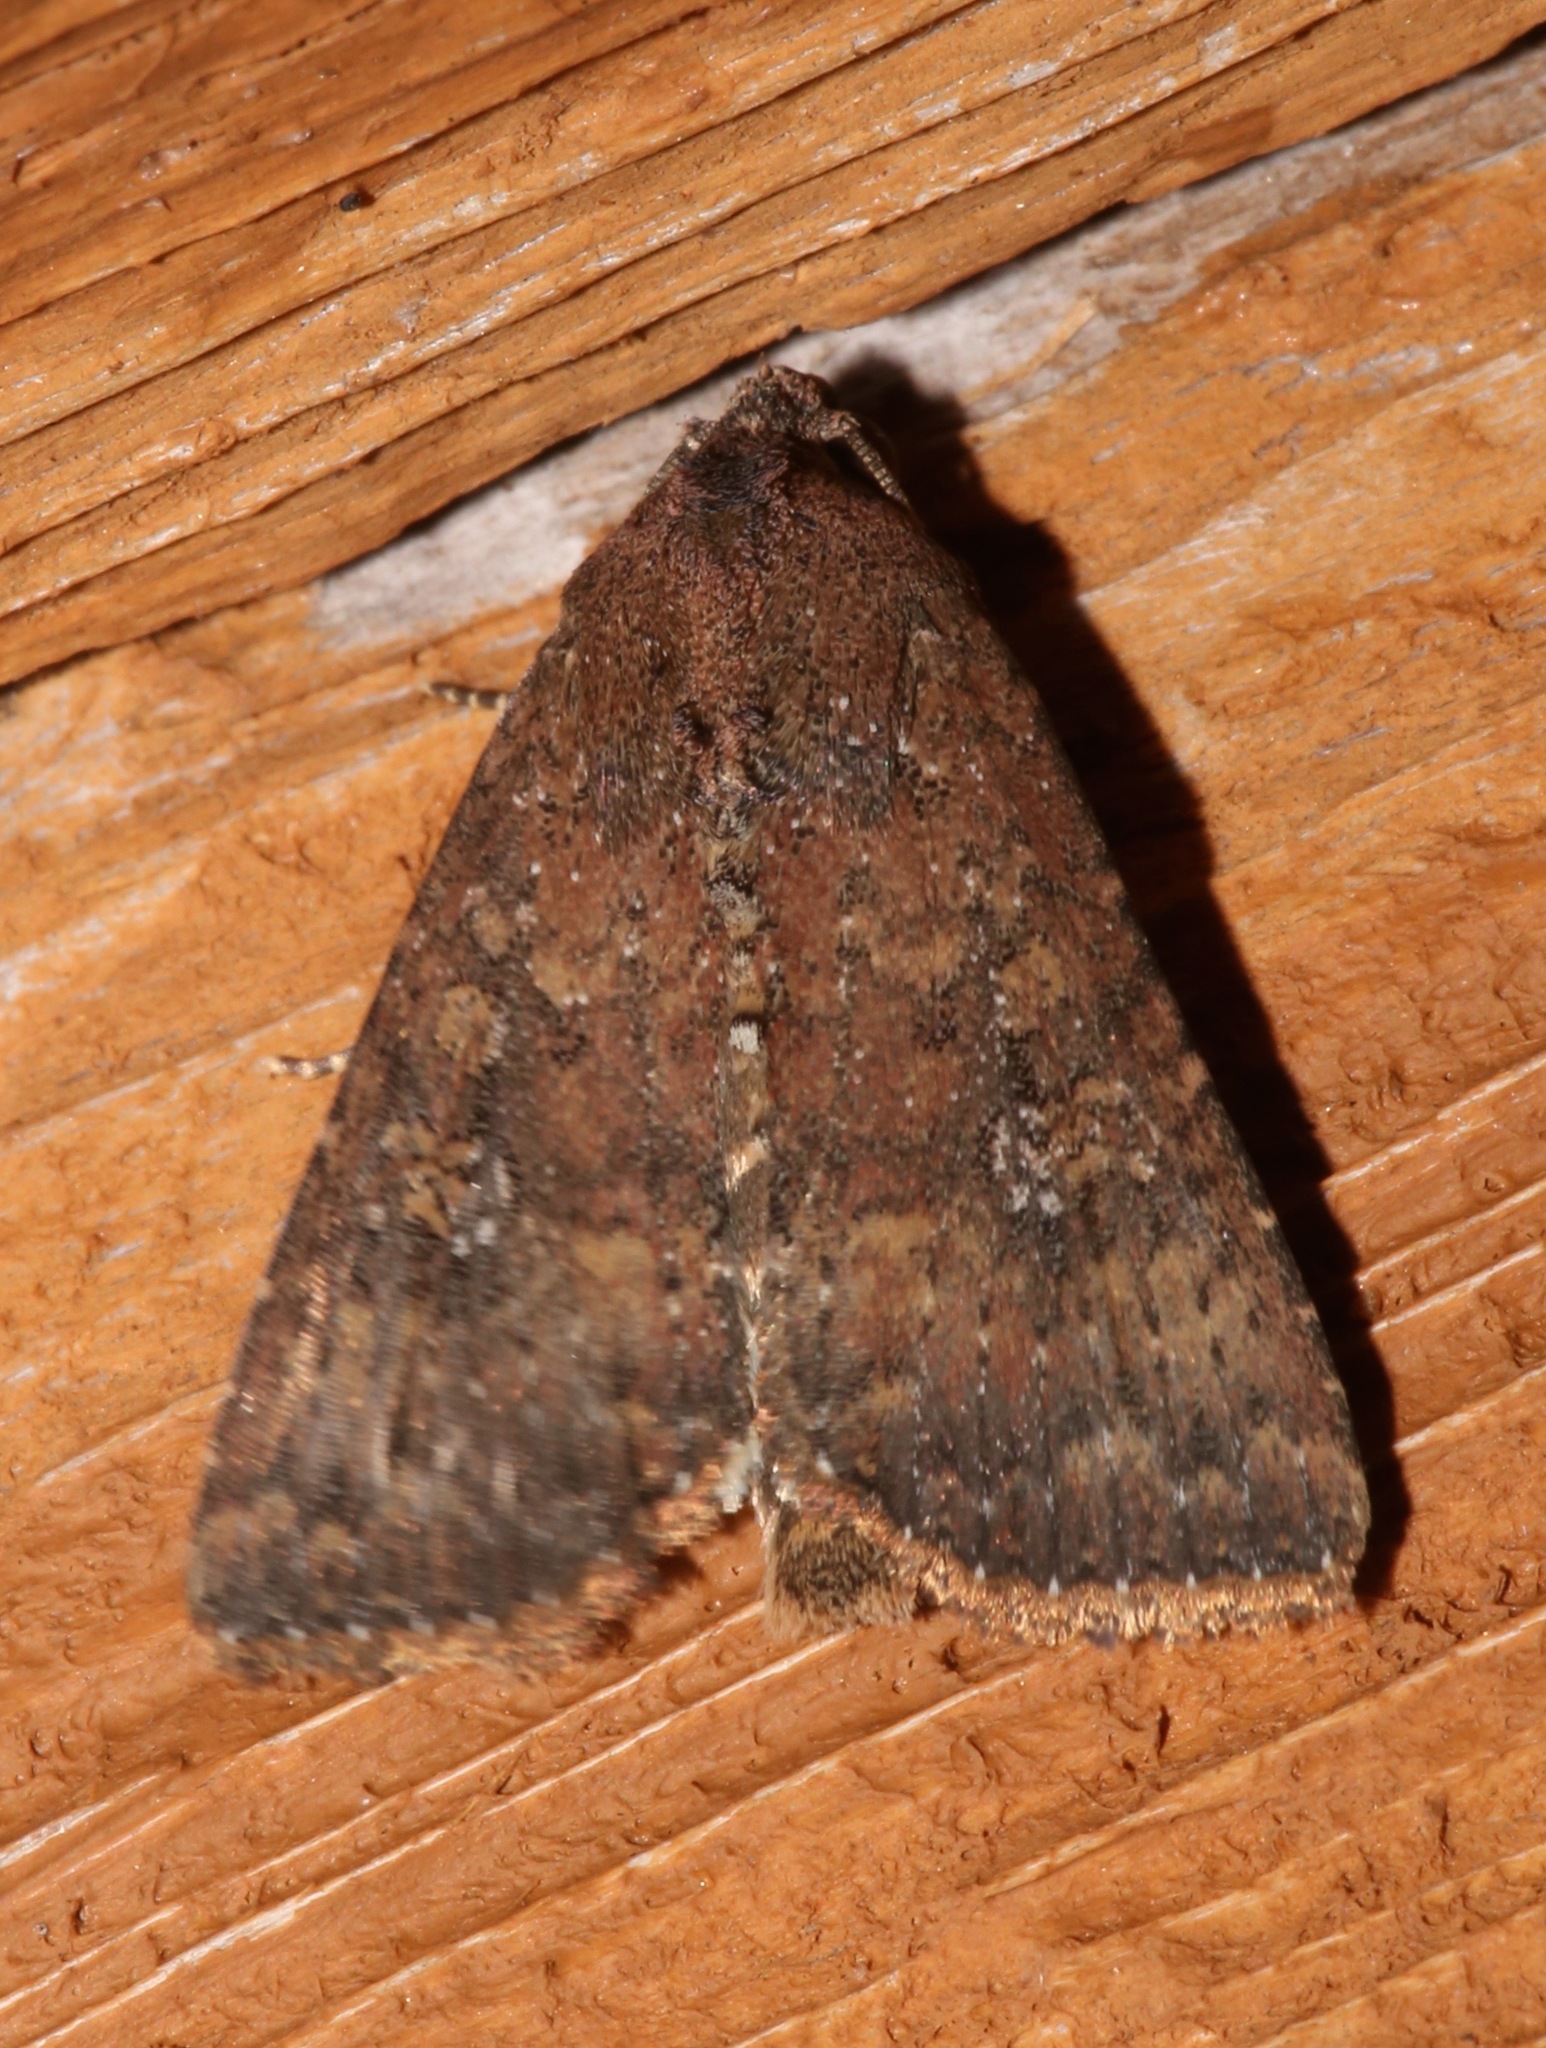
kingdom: Animalia
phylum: Arthropoda
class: Insecta
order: Lepidoptera
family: Noctuidae
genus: Condica
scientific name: Condica sutor
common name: Cobbler moth
